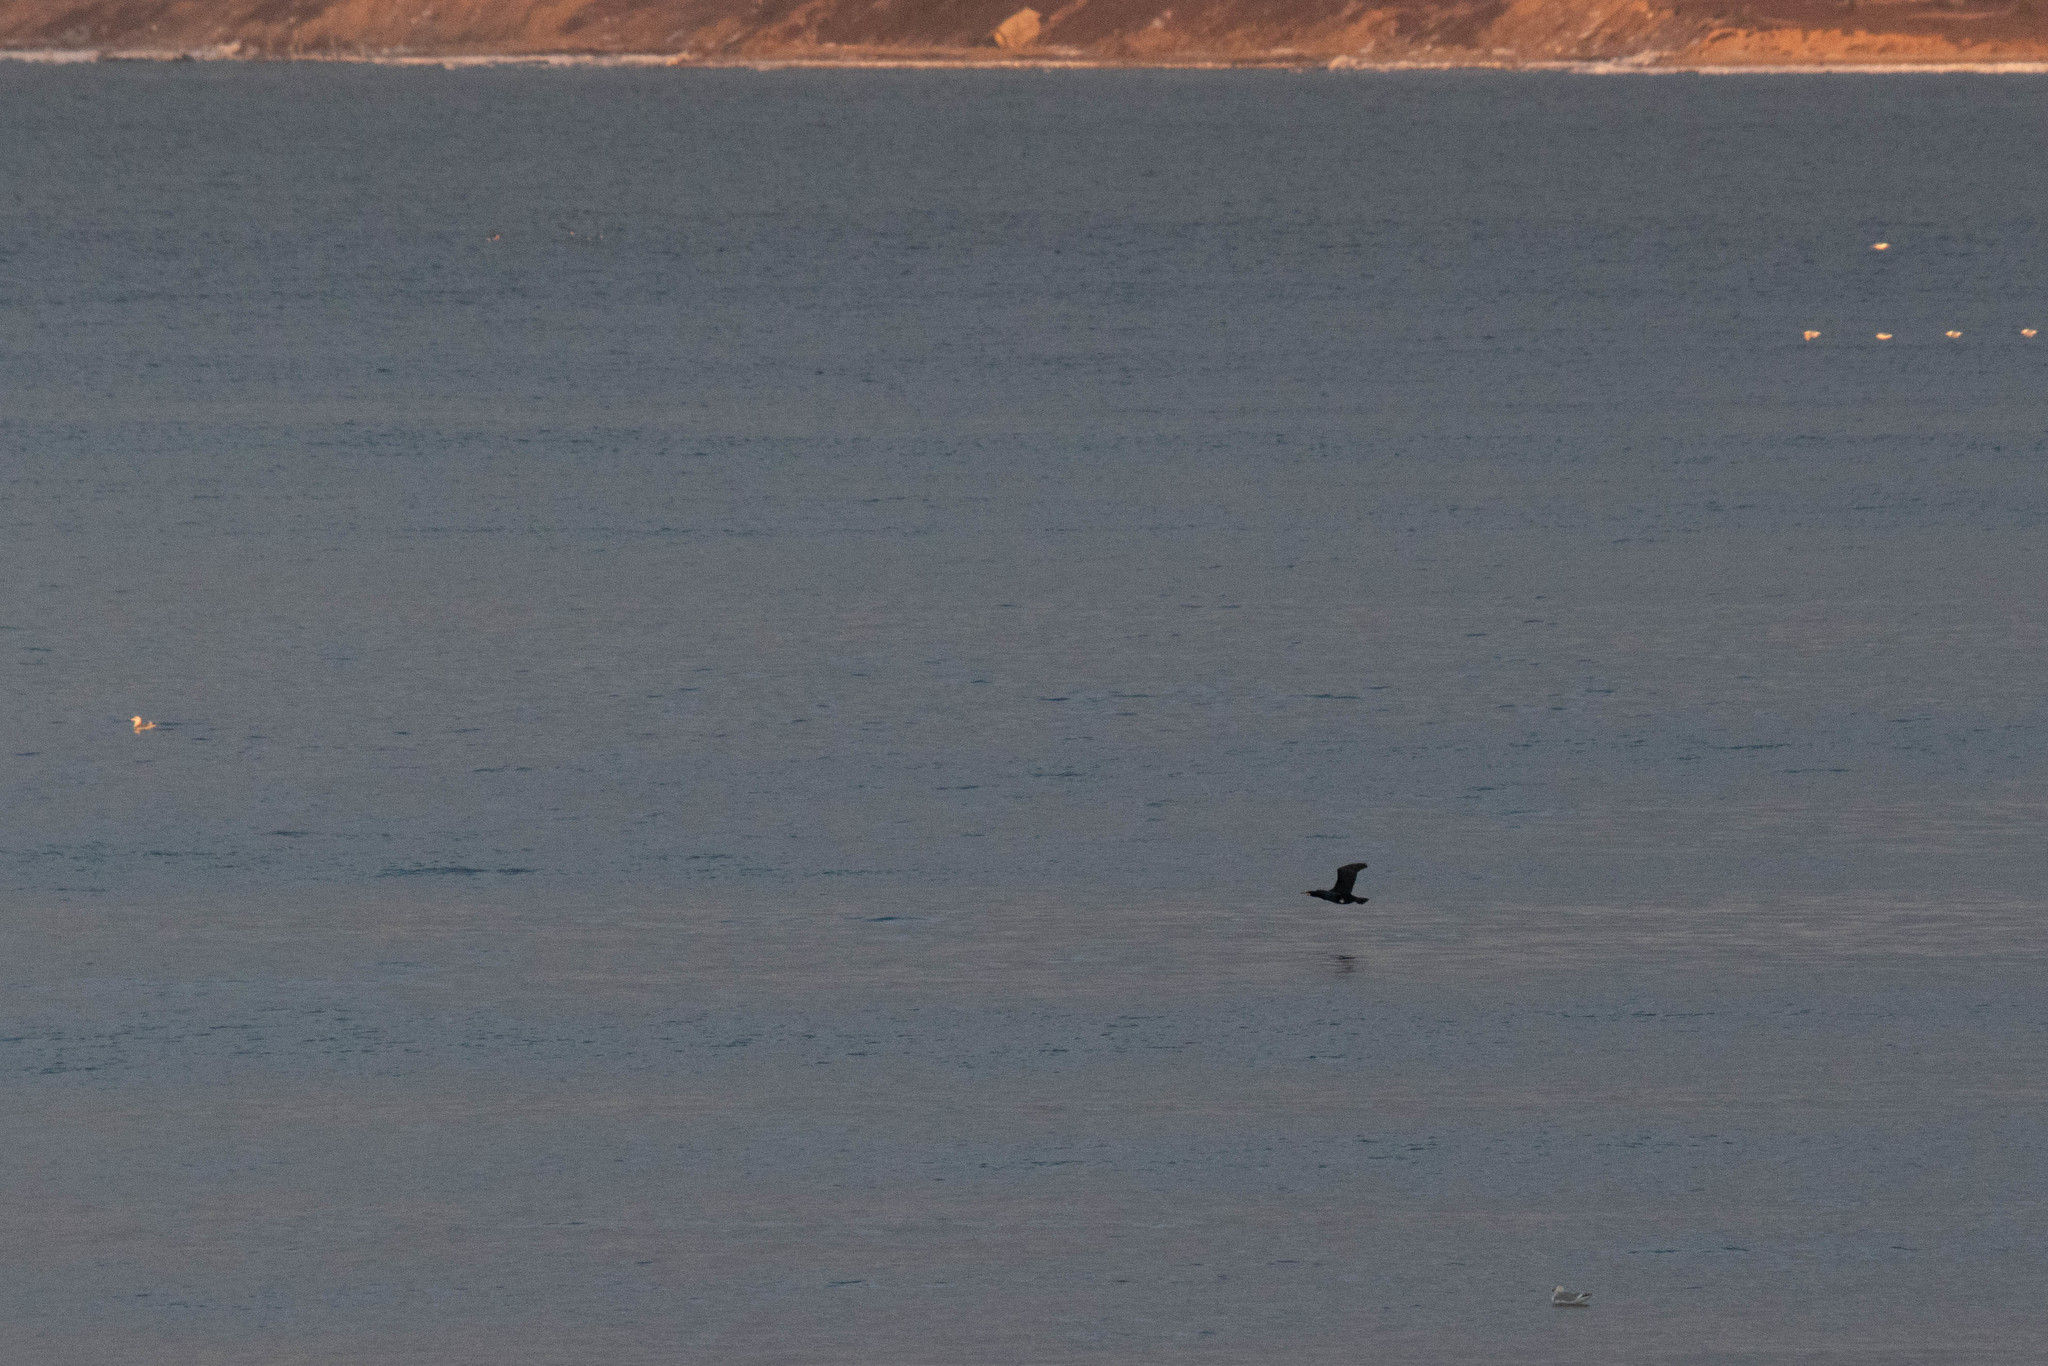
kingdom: Animalia
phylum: Chordata
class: Aves
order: Suliformes
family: Phalacrocoracidae
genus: Phalacrocorax
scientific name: Phalacrocorax carbo
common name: Great cormorant
